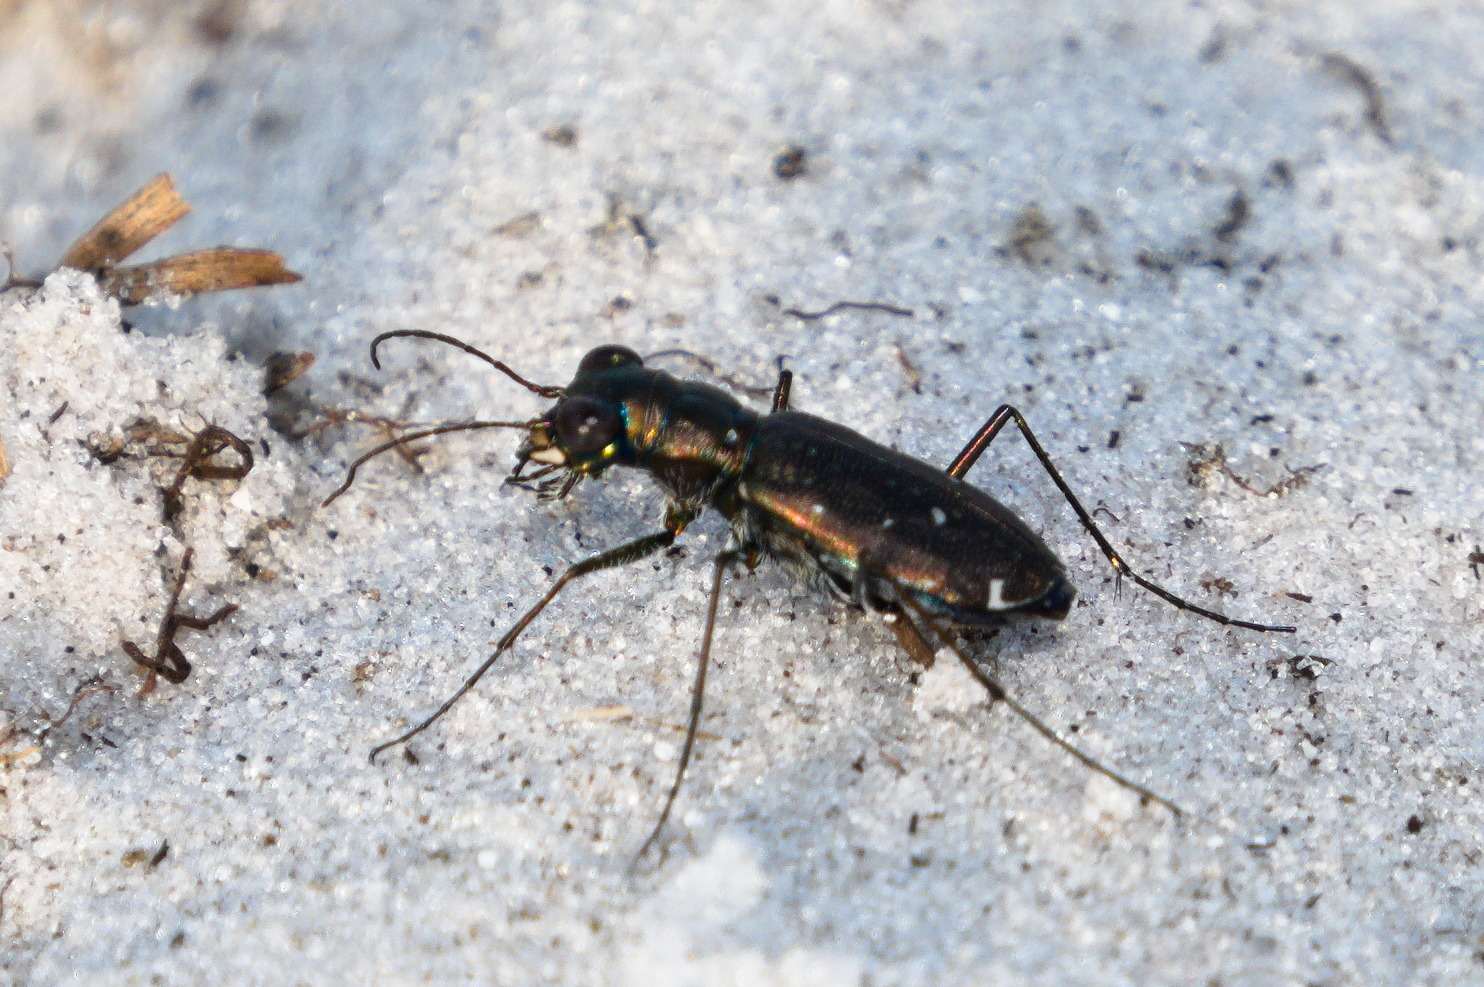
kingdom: Animalia
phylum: Arthropoda
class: Insecta
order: Coleoptera
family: Carabidae
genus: Cicindela
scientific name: Cicindela punctulata
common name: Punctured tiger beetle
